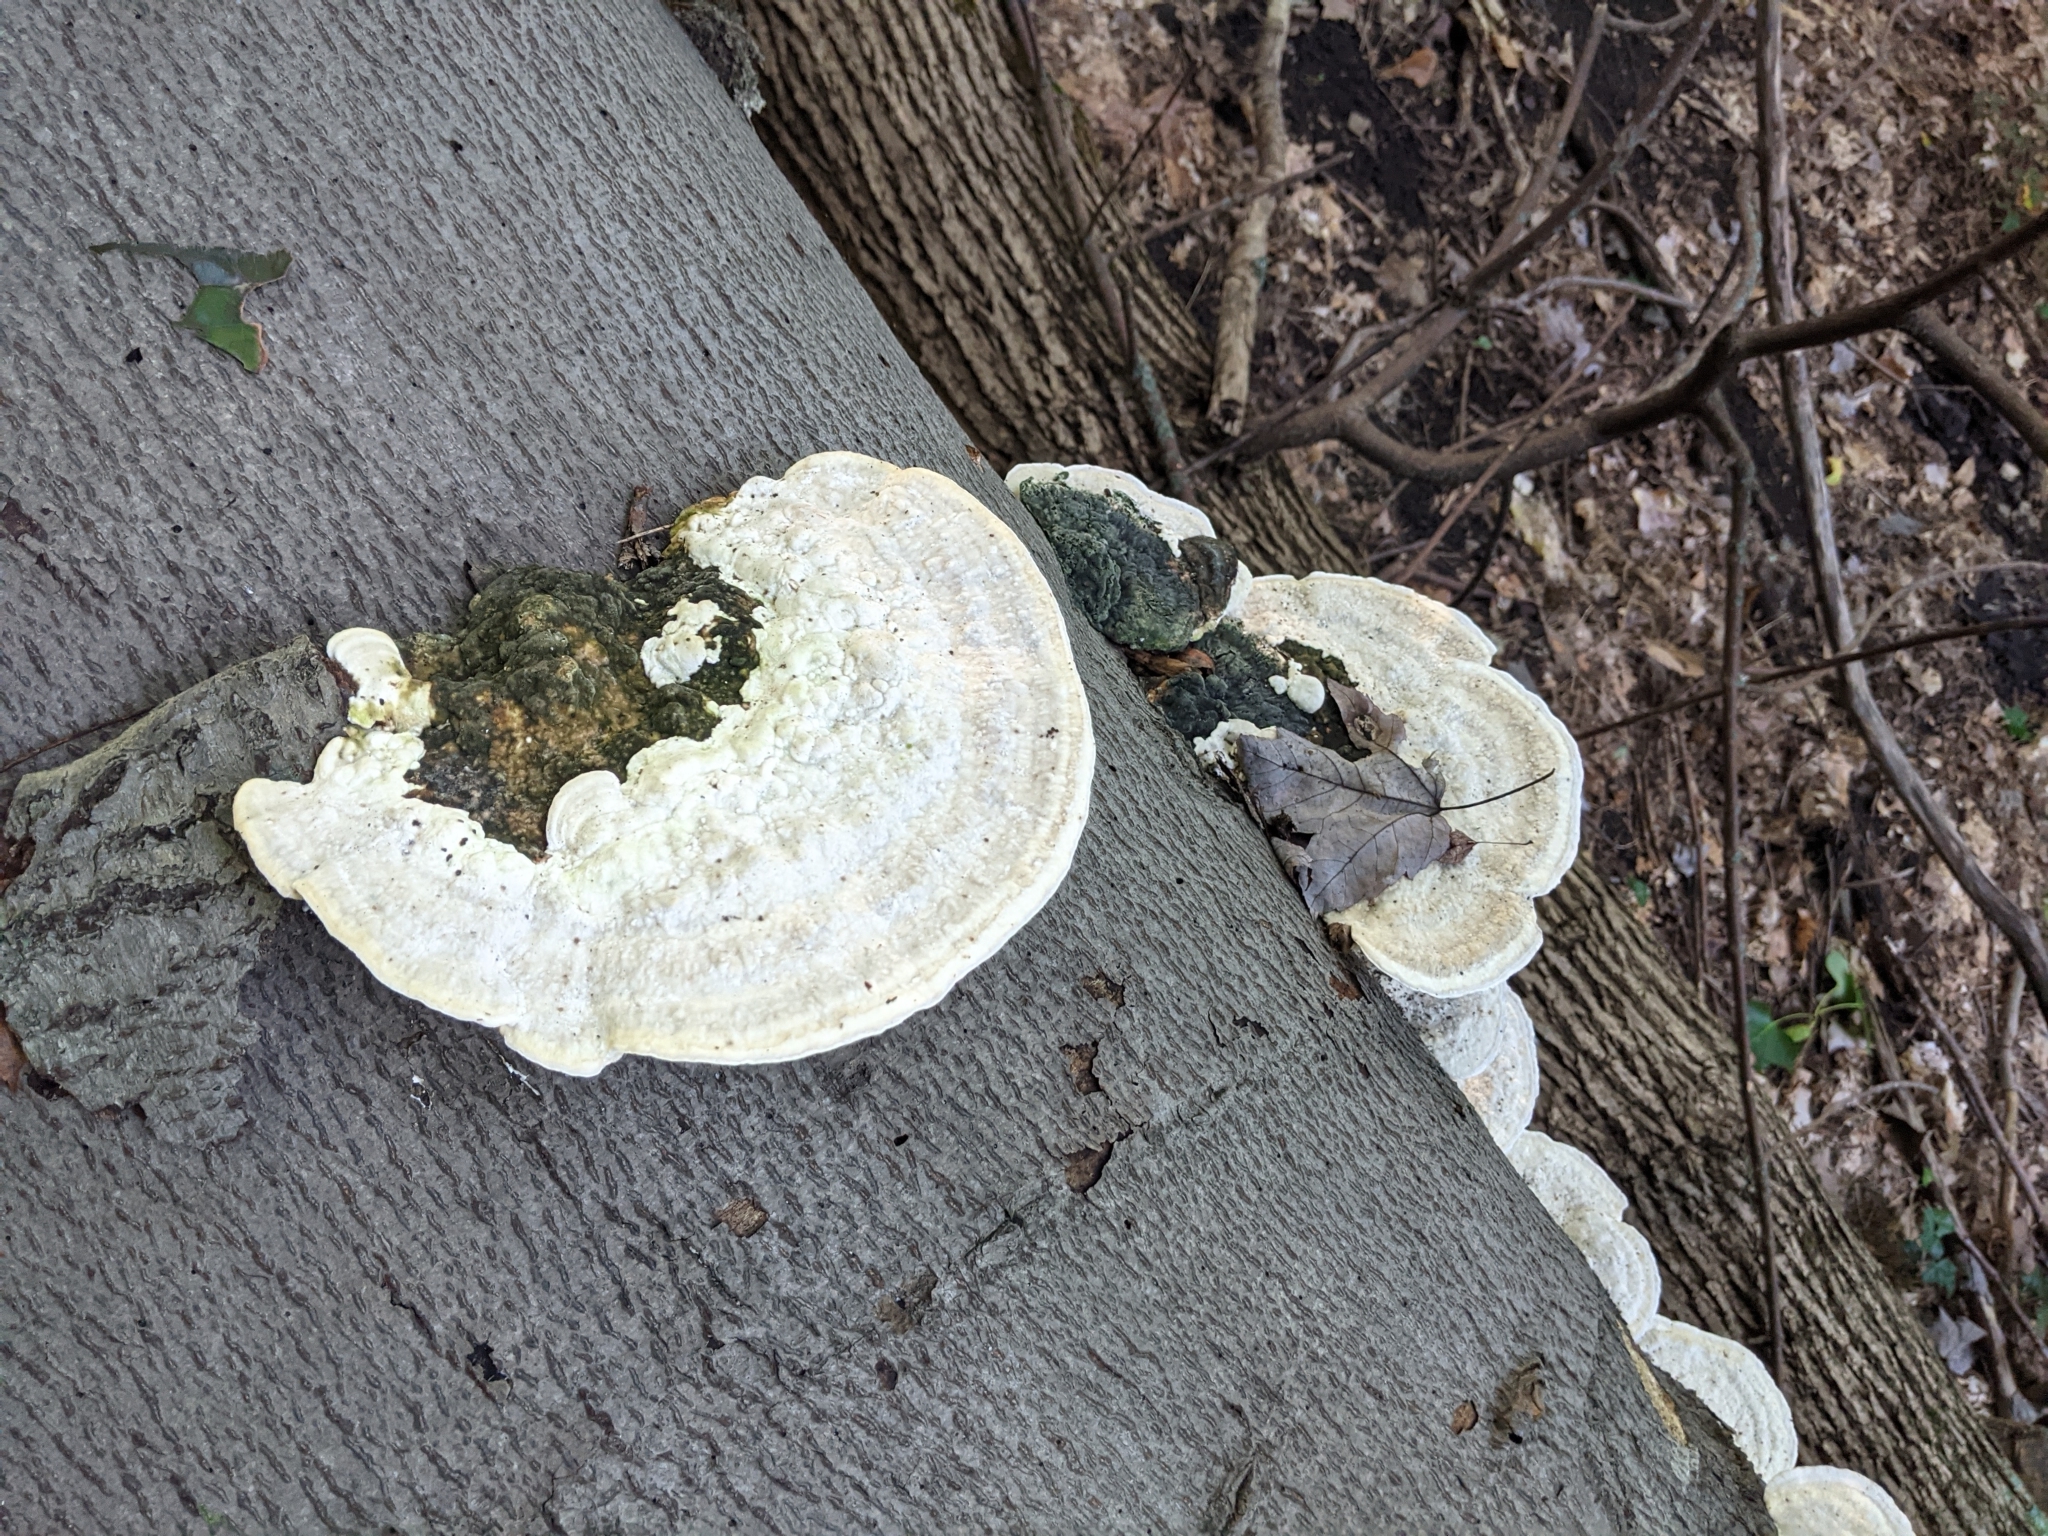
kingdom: Fungi
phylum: Basidiomycota
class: Agaricomycetes
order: Polyporales
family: Polyporaceae
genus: Trametes
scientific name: Trametes gibbosa
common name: Lumpy bracket
